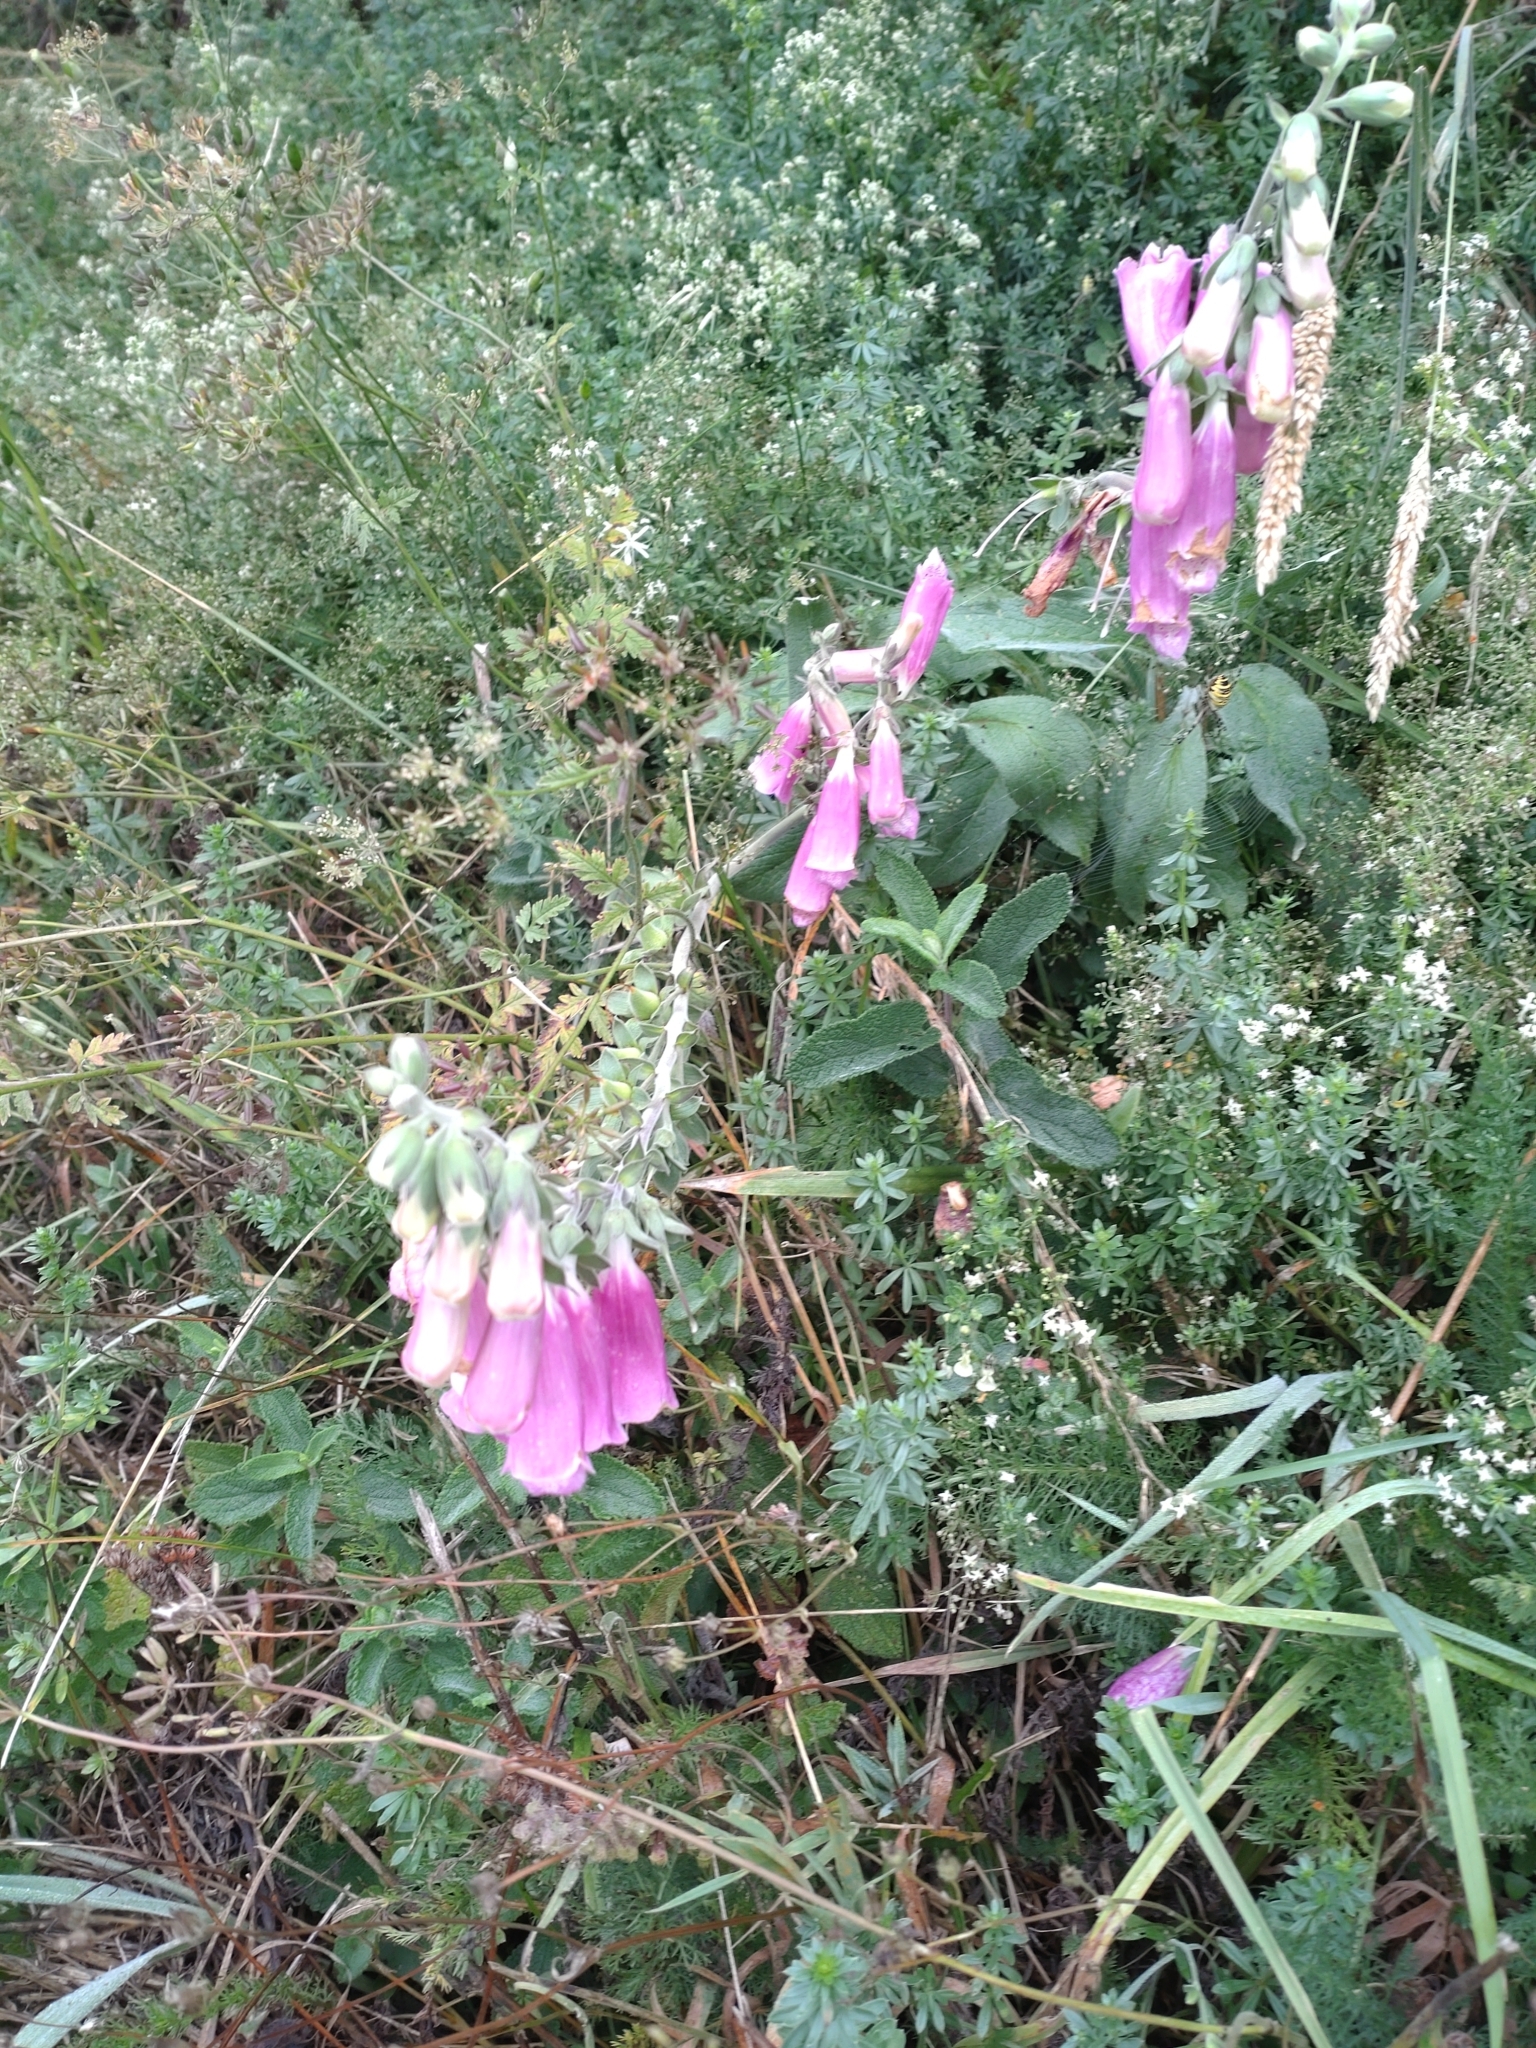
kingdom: Plantae
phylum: Tracheophyta
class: Magnoliopsida
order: Lamiales
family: Plantaginaceae
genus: Digitalis
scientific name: Digitalis purpurea
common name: Foxglove
